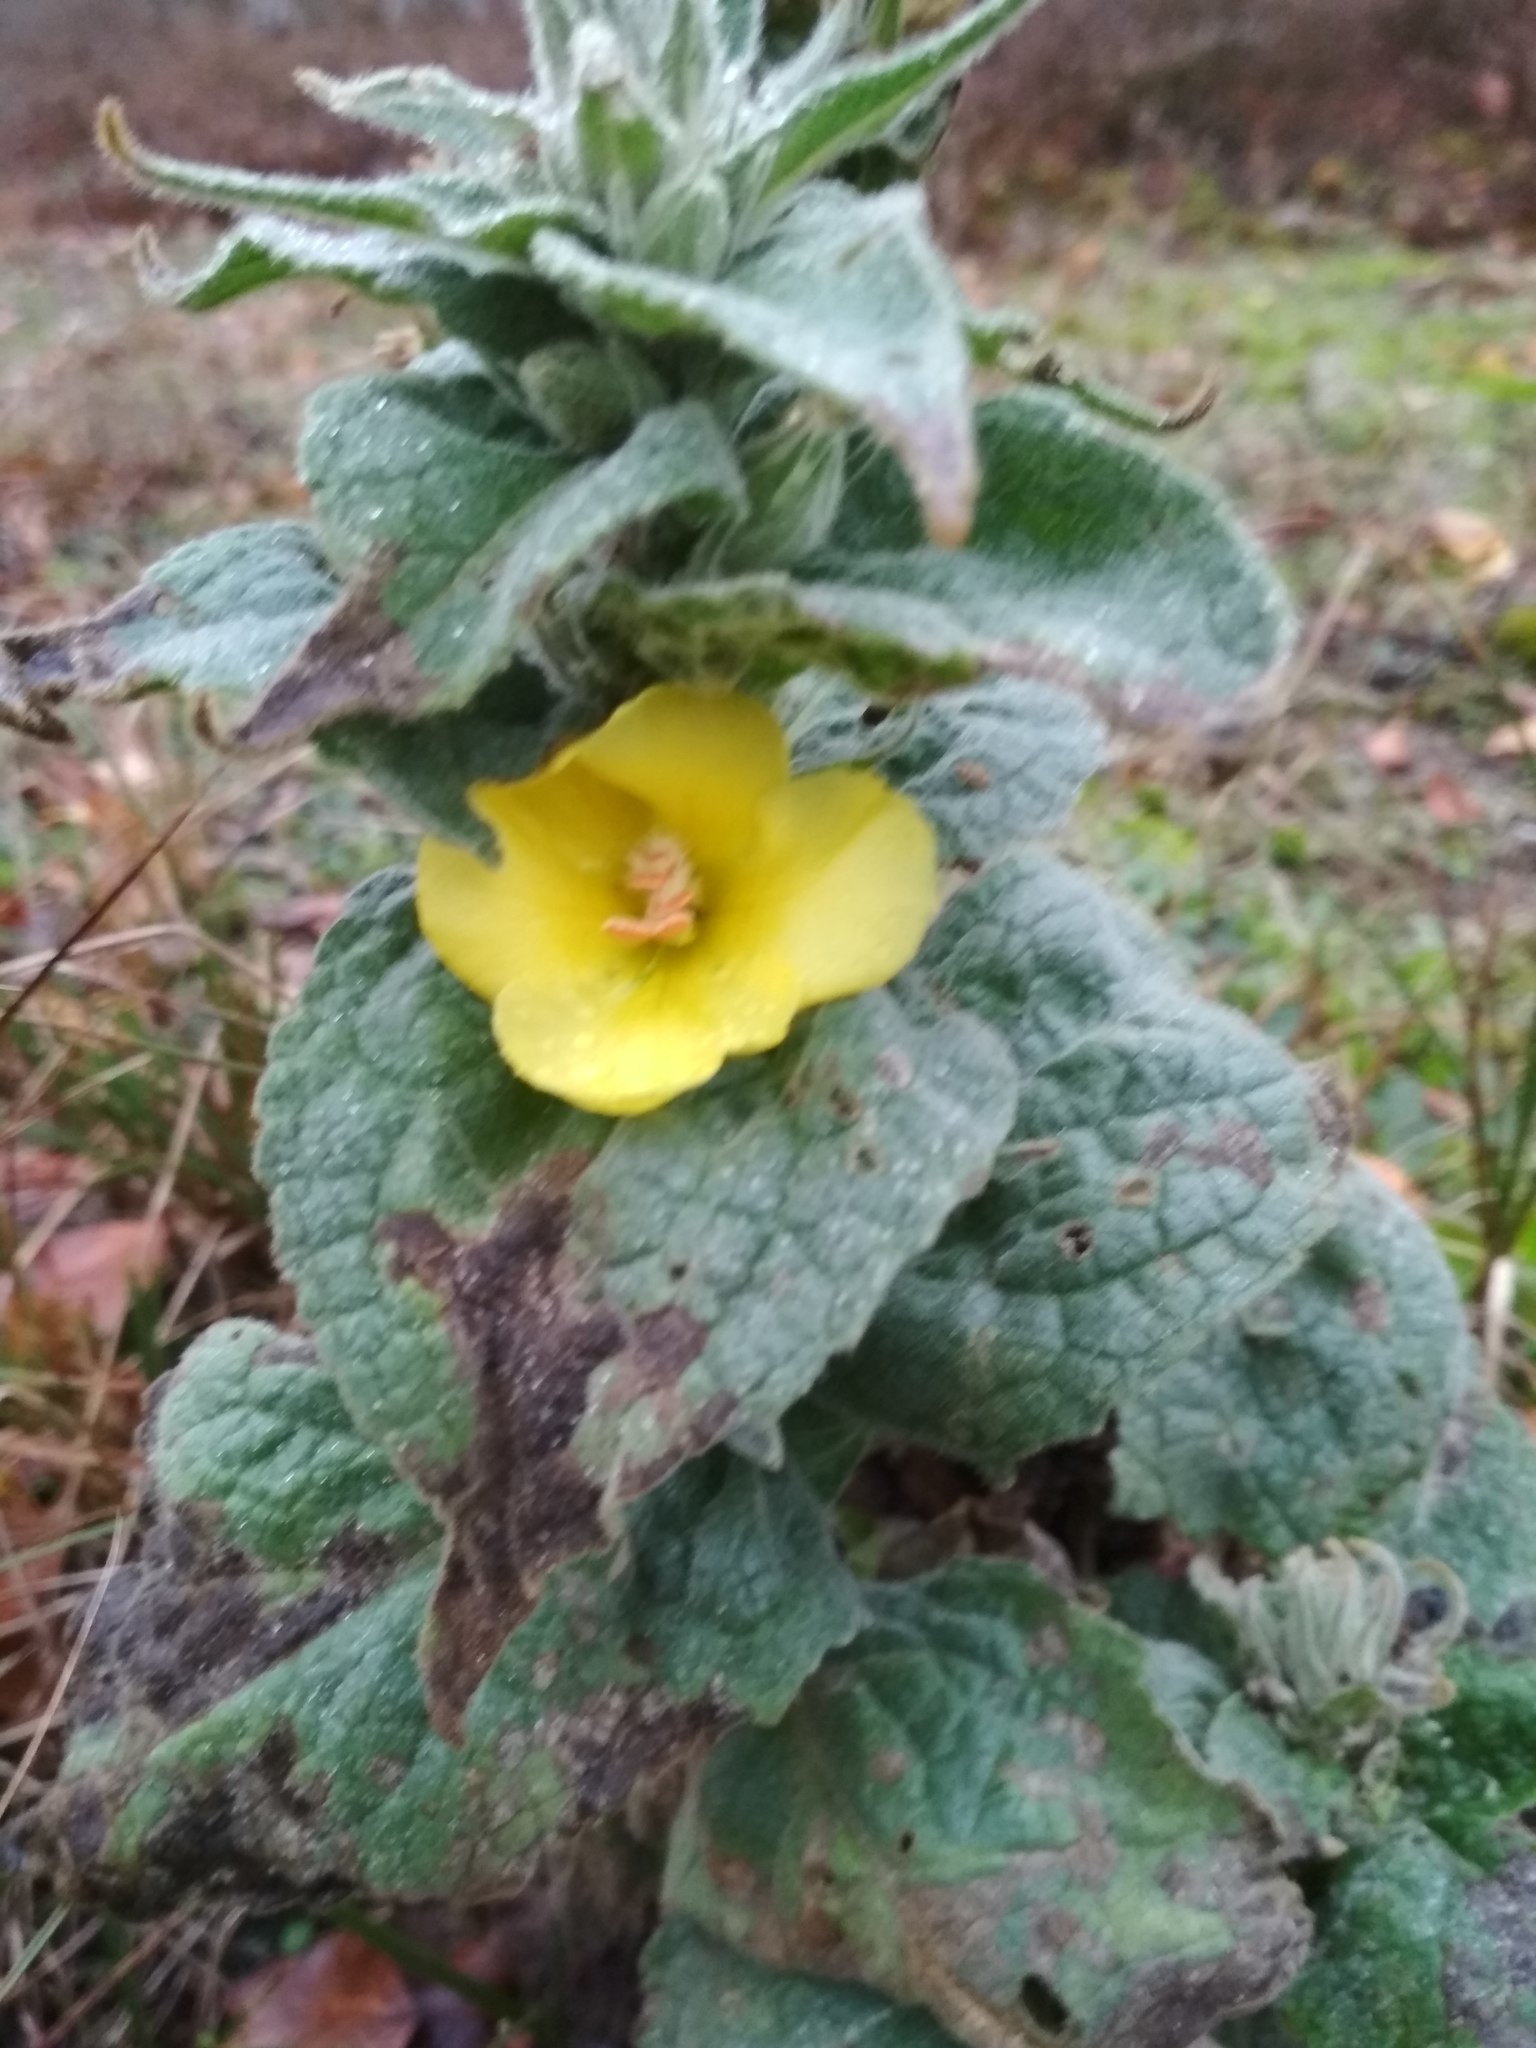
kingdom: Plantae
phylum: Tracheophyta
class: Magnoliopsida
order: Lamiales
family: Scrophulariaceae
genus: Verbascum
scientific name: Verbascum thapsus
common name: Common mullein
